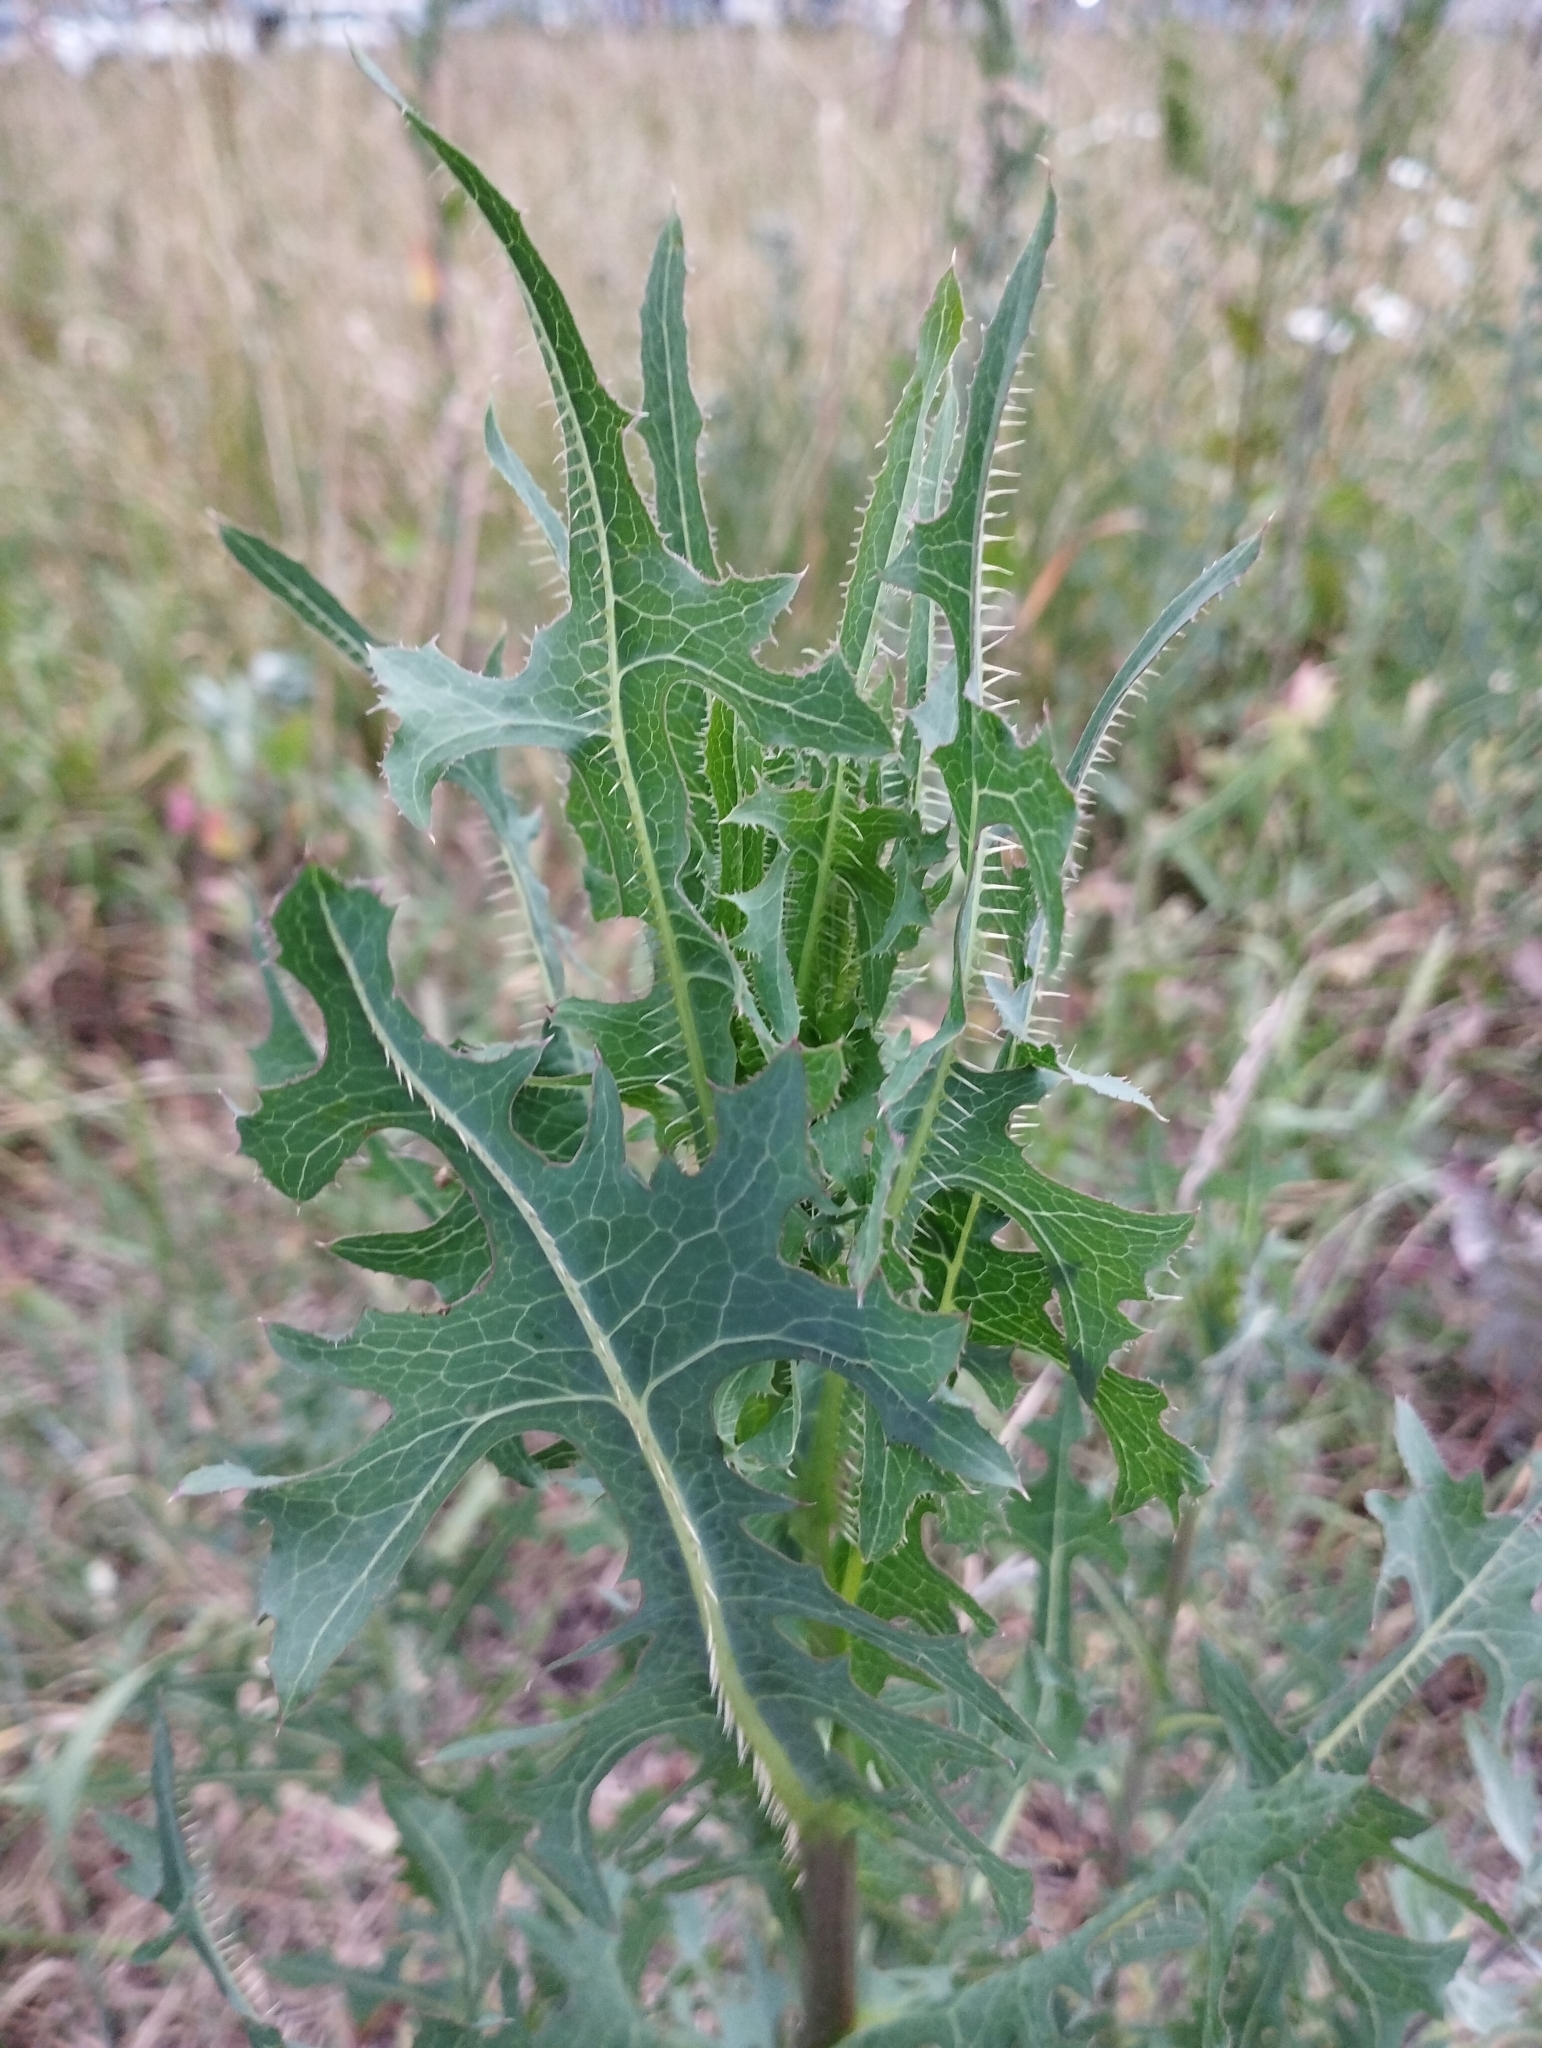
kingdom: Plantae
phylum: Tracheophyta
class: Magnoliopsida
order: Asterales
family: Asteraceae
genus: Lactuca
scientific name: Lactuca serriola
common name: Prickly lettuce
